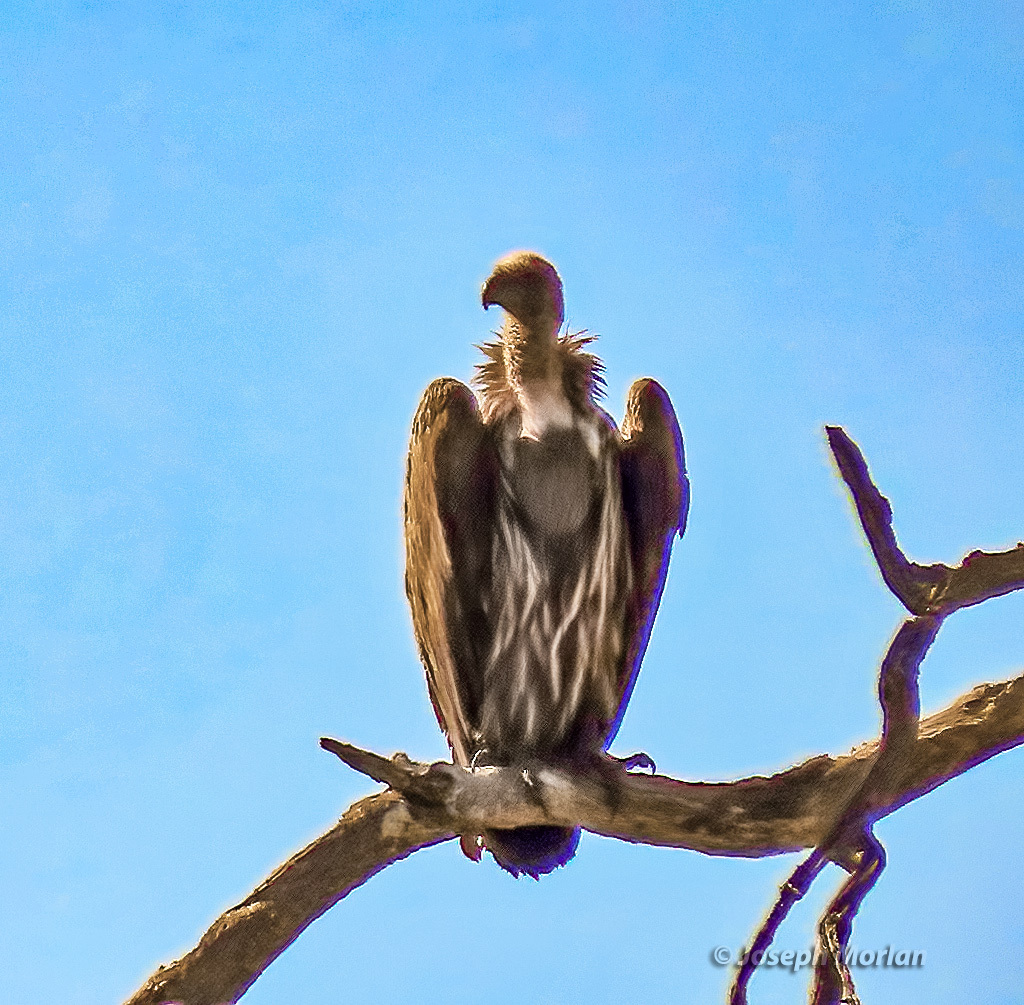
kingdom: Animalia
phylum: Chordata
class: Aves
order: Accipitriformes
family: Accipitridae
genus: Gyps
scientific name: Gyps africanus
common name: White-backed vulture
